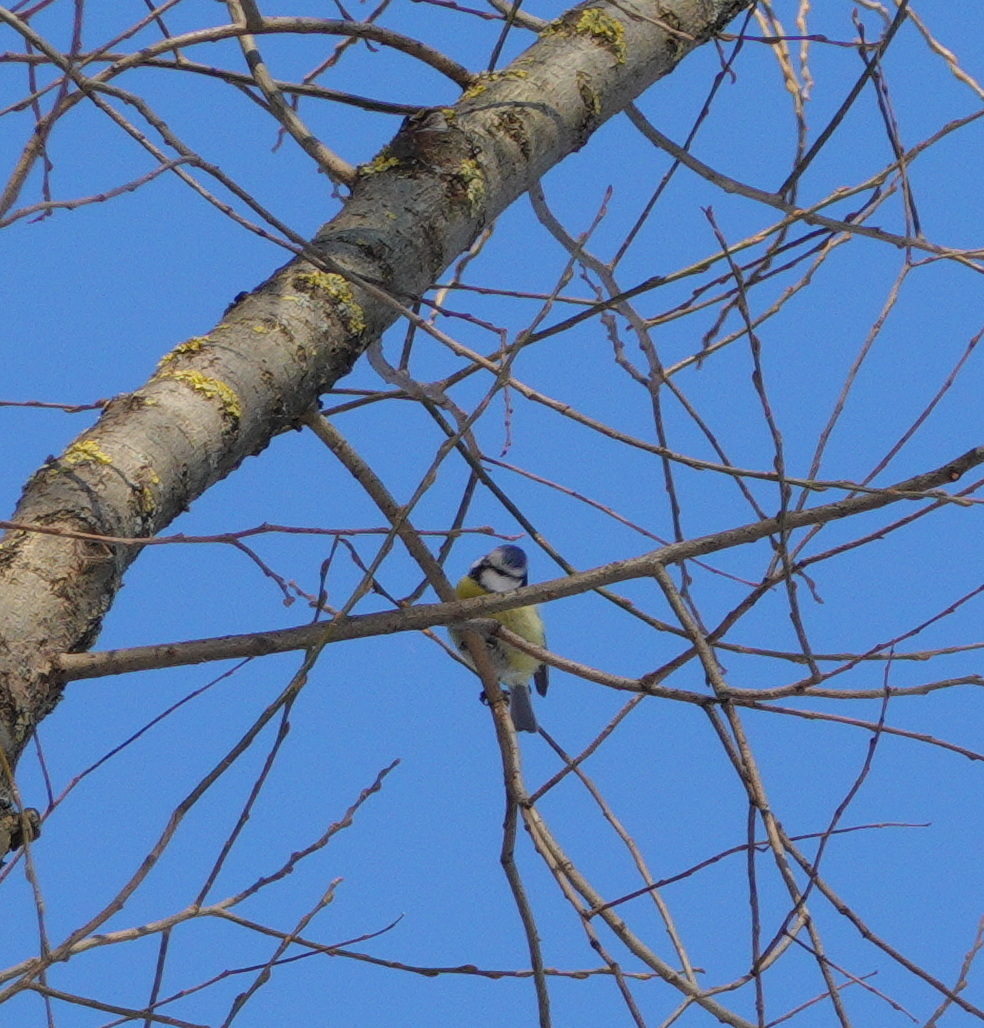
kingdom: Animalia
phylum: Chordata
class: Aves
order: Passeriformes
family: Paridae
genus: Cyanistes
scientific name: Cyanistes caeruleus
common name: Eurasian blue tit
